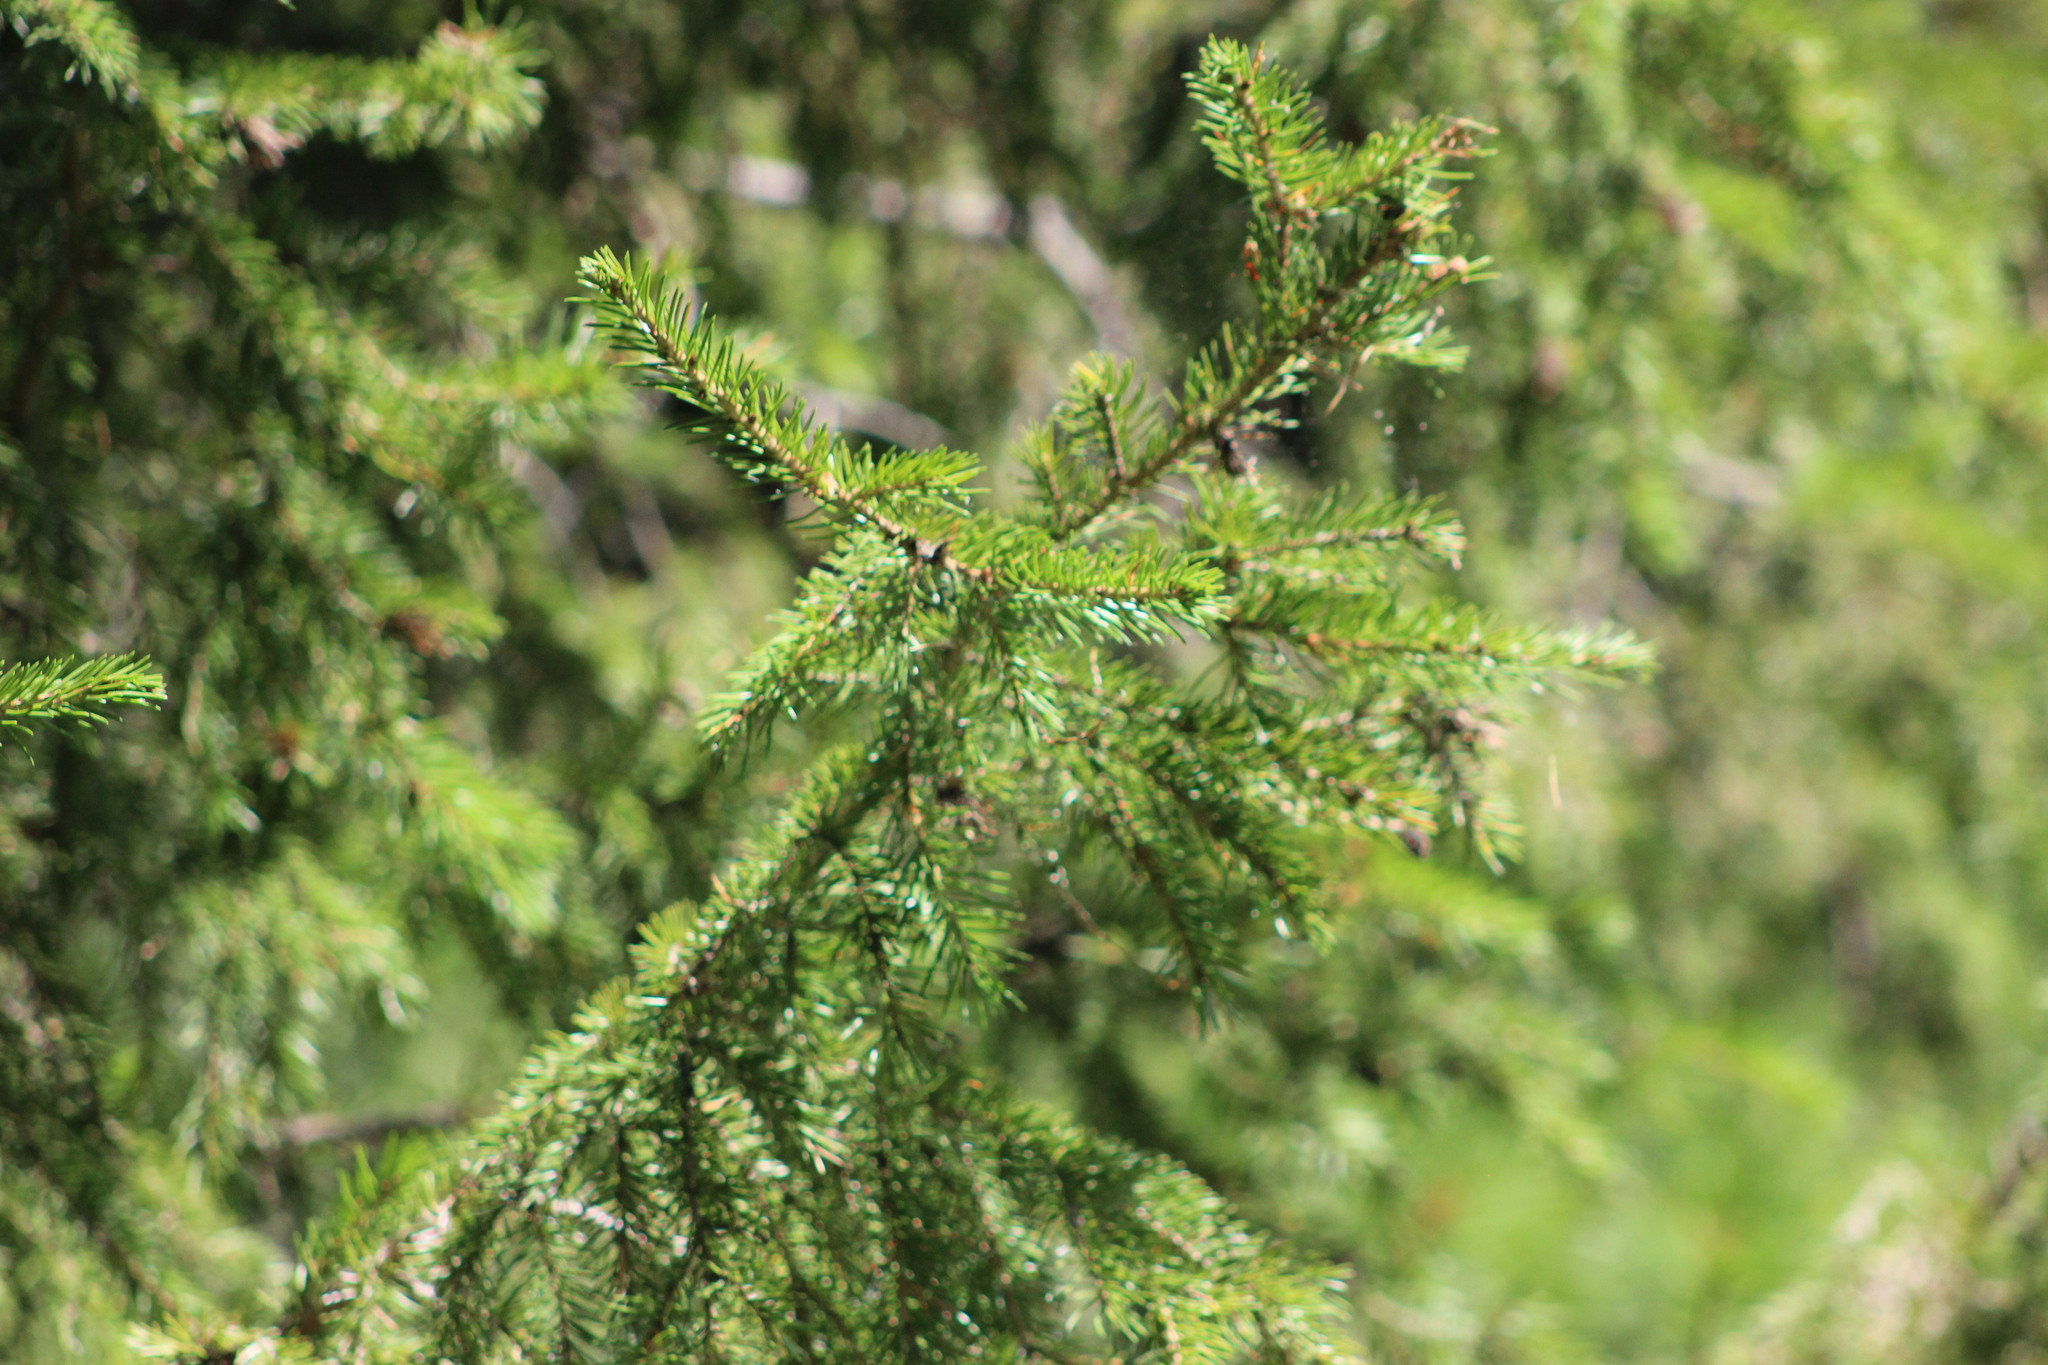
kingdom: Plantae
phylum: Tracheophyta
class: Pinopsida
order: Pinales
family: Pinaceae
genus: Picea
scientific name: Picea obovata
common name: Siberian spruce
